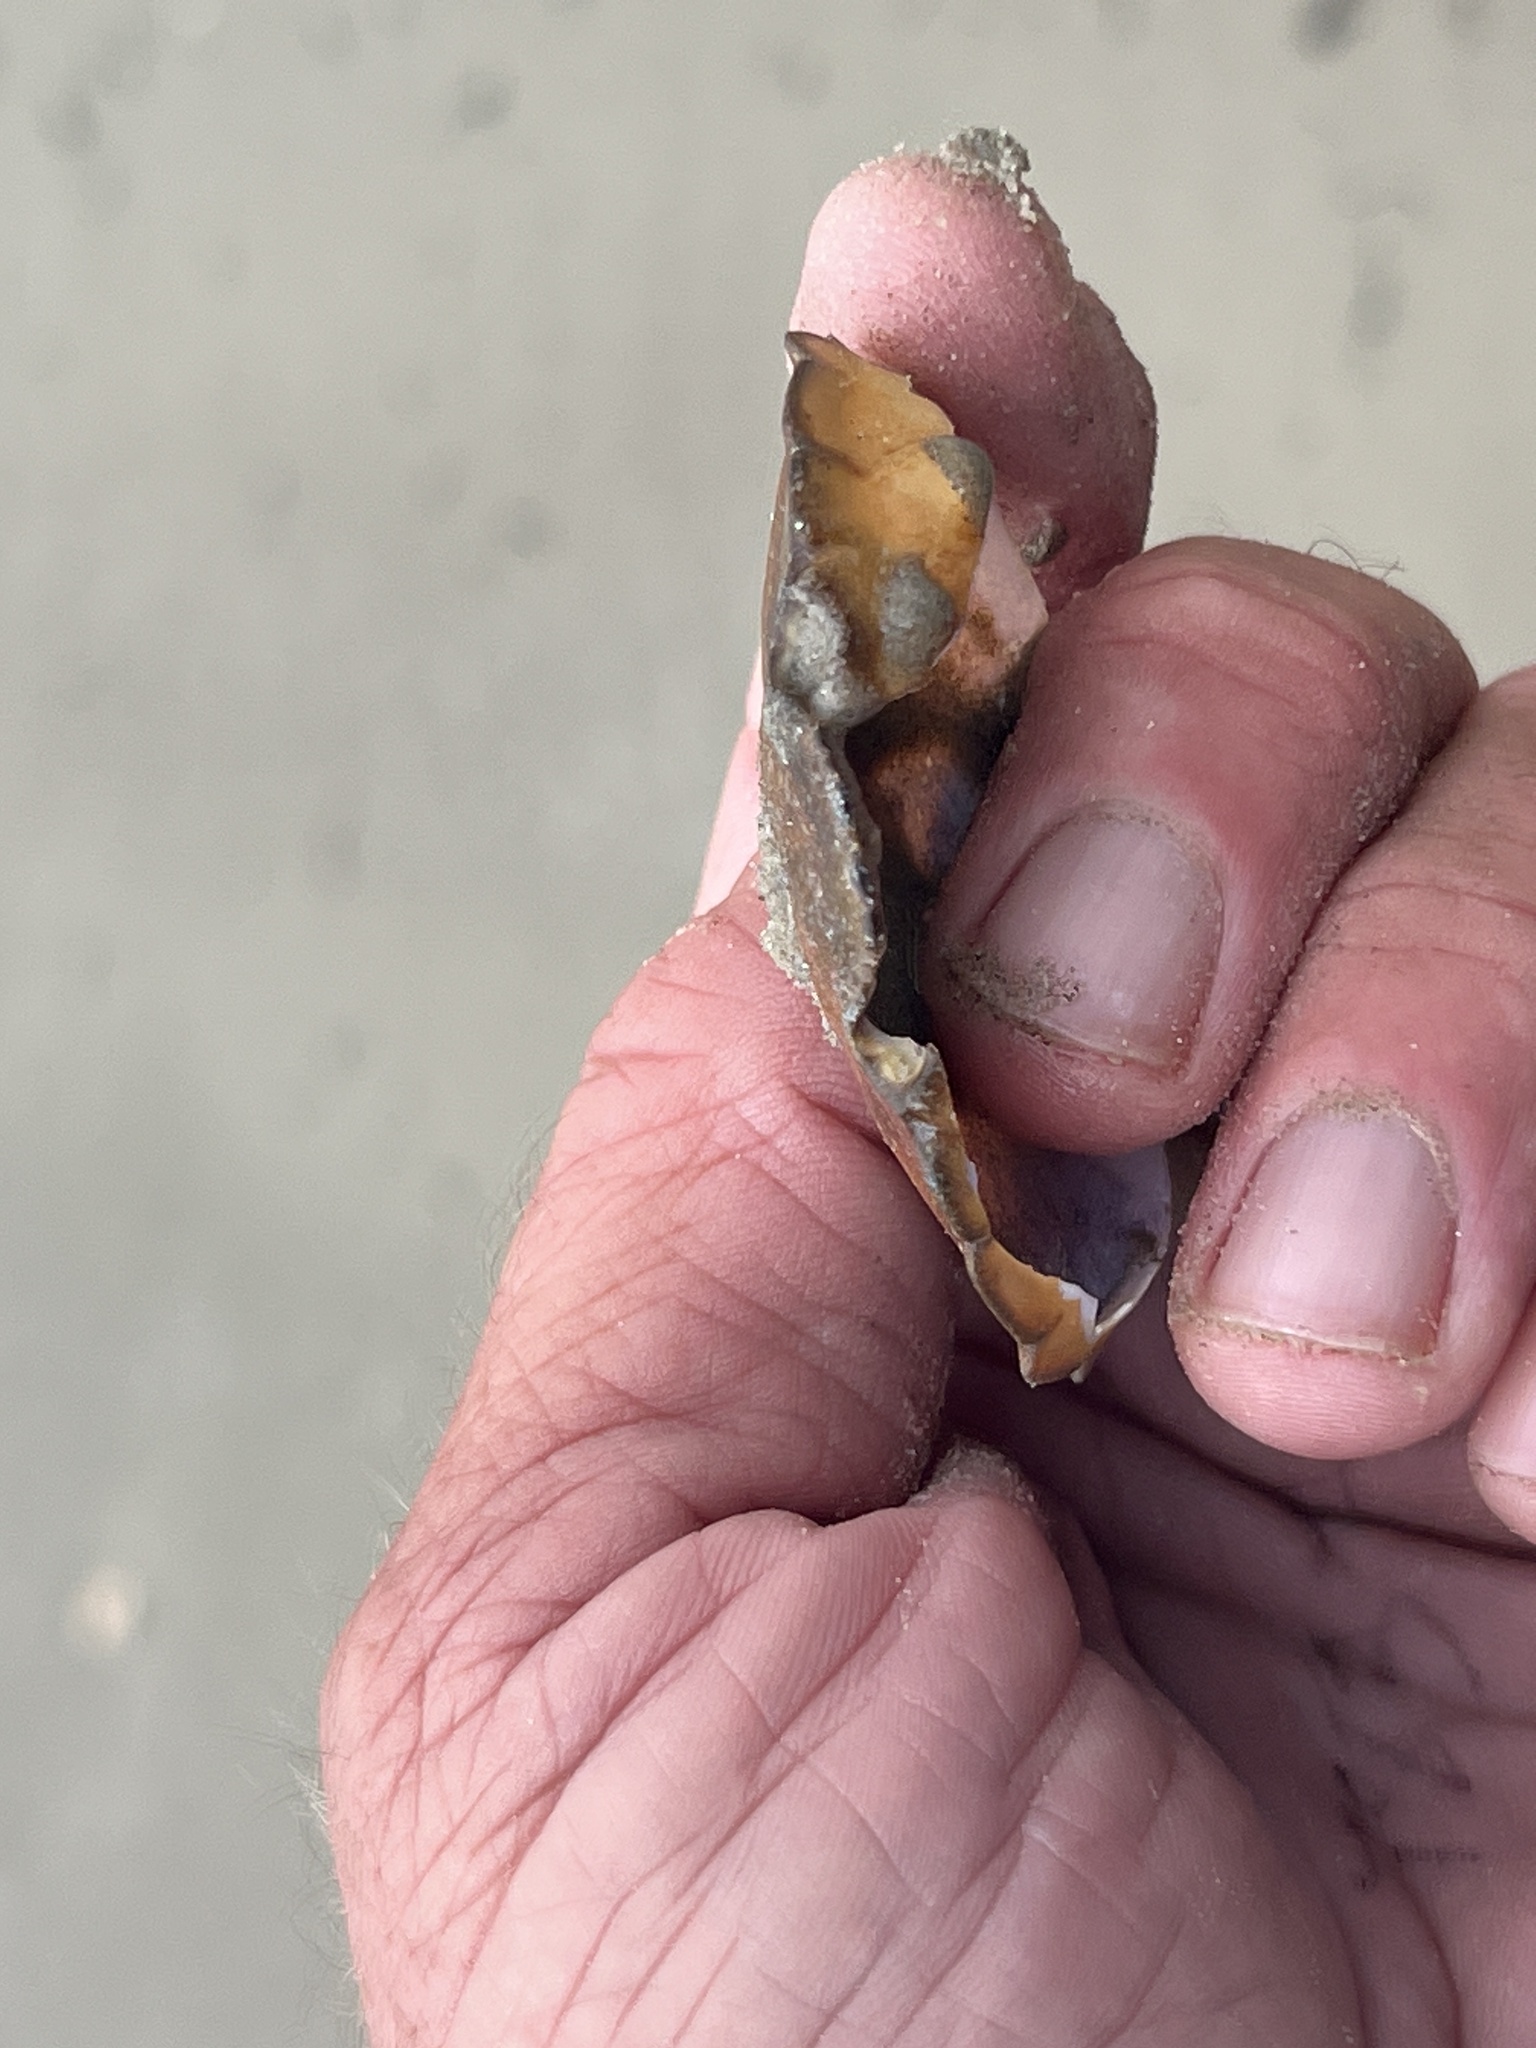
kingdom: Animalia
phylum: Arthropoda
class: Malacostraca
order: Decapoda
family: Menippidae
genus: Menippe
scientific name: Menippe adina
